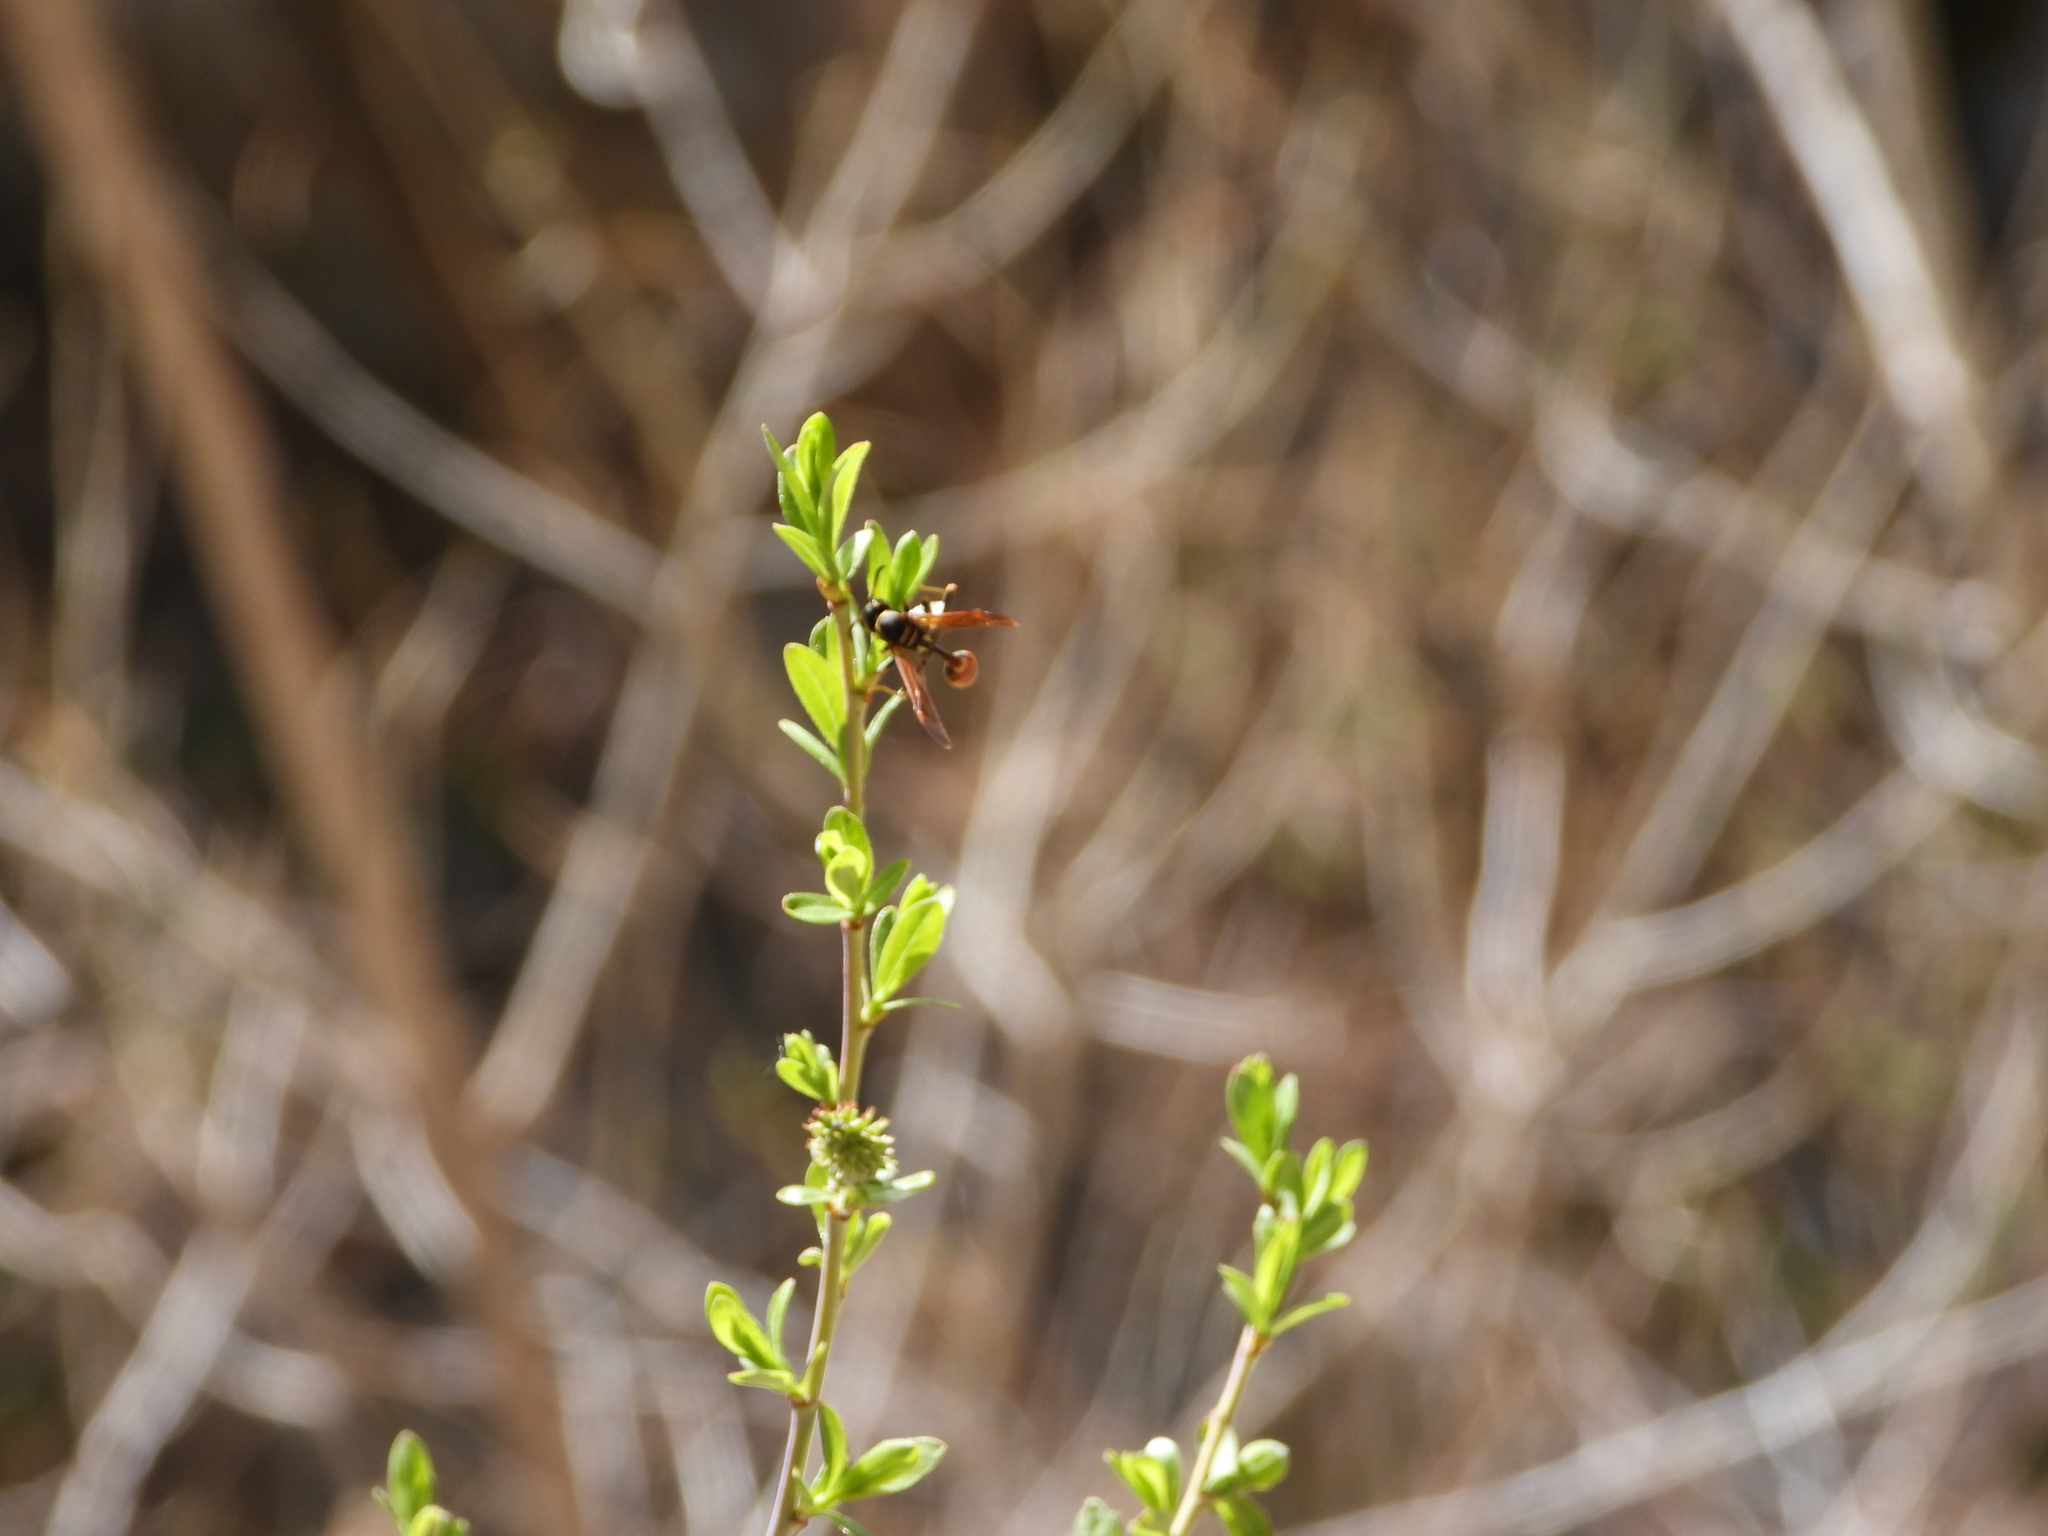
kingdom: Animalia
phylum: Arthropoda
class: Insecta
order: Hymenoptera
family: Vespidae
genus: Mischocyttarus
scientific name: Mischocyttarus flavitarsis
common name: Wasp
